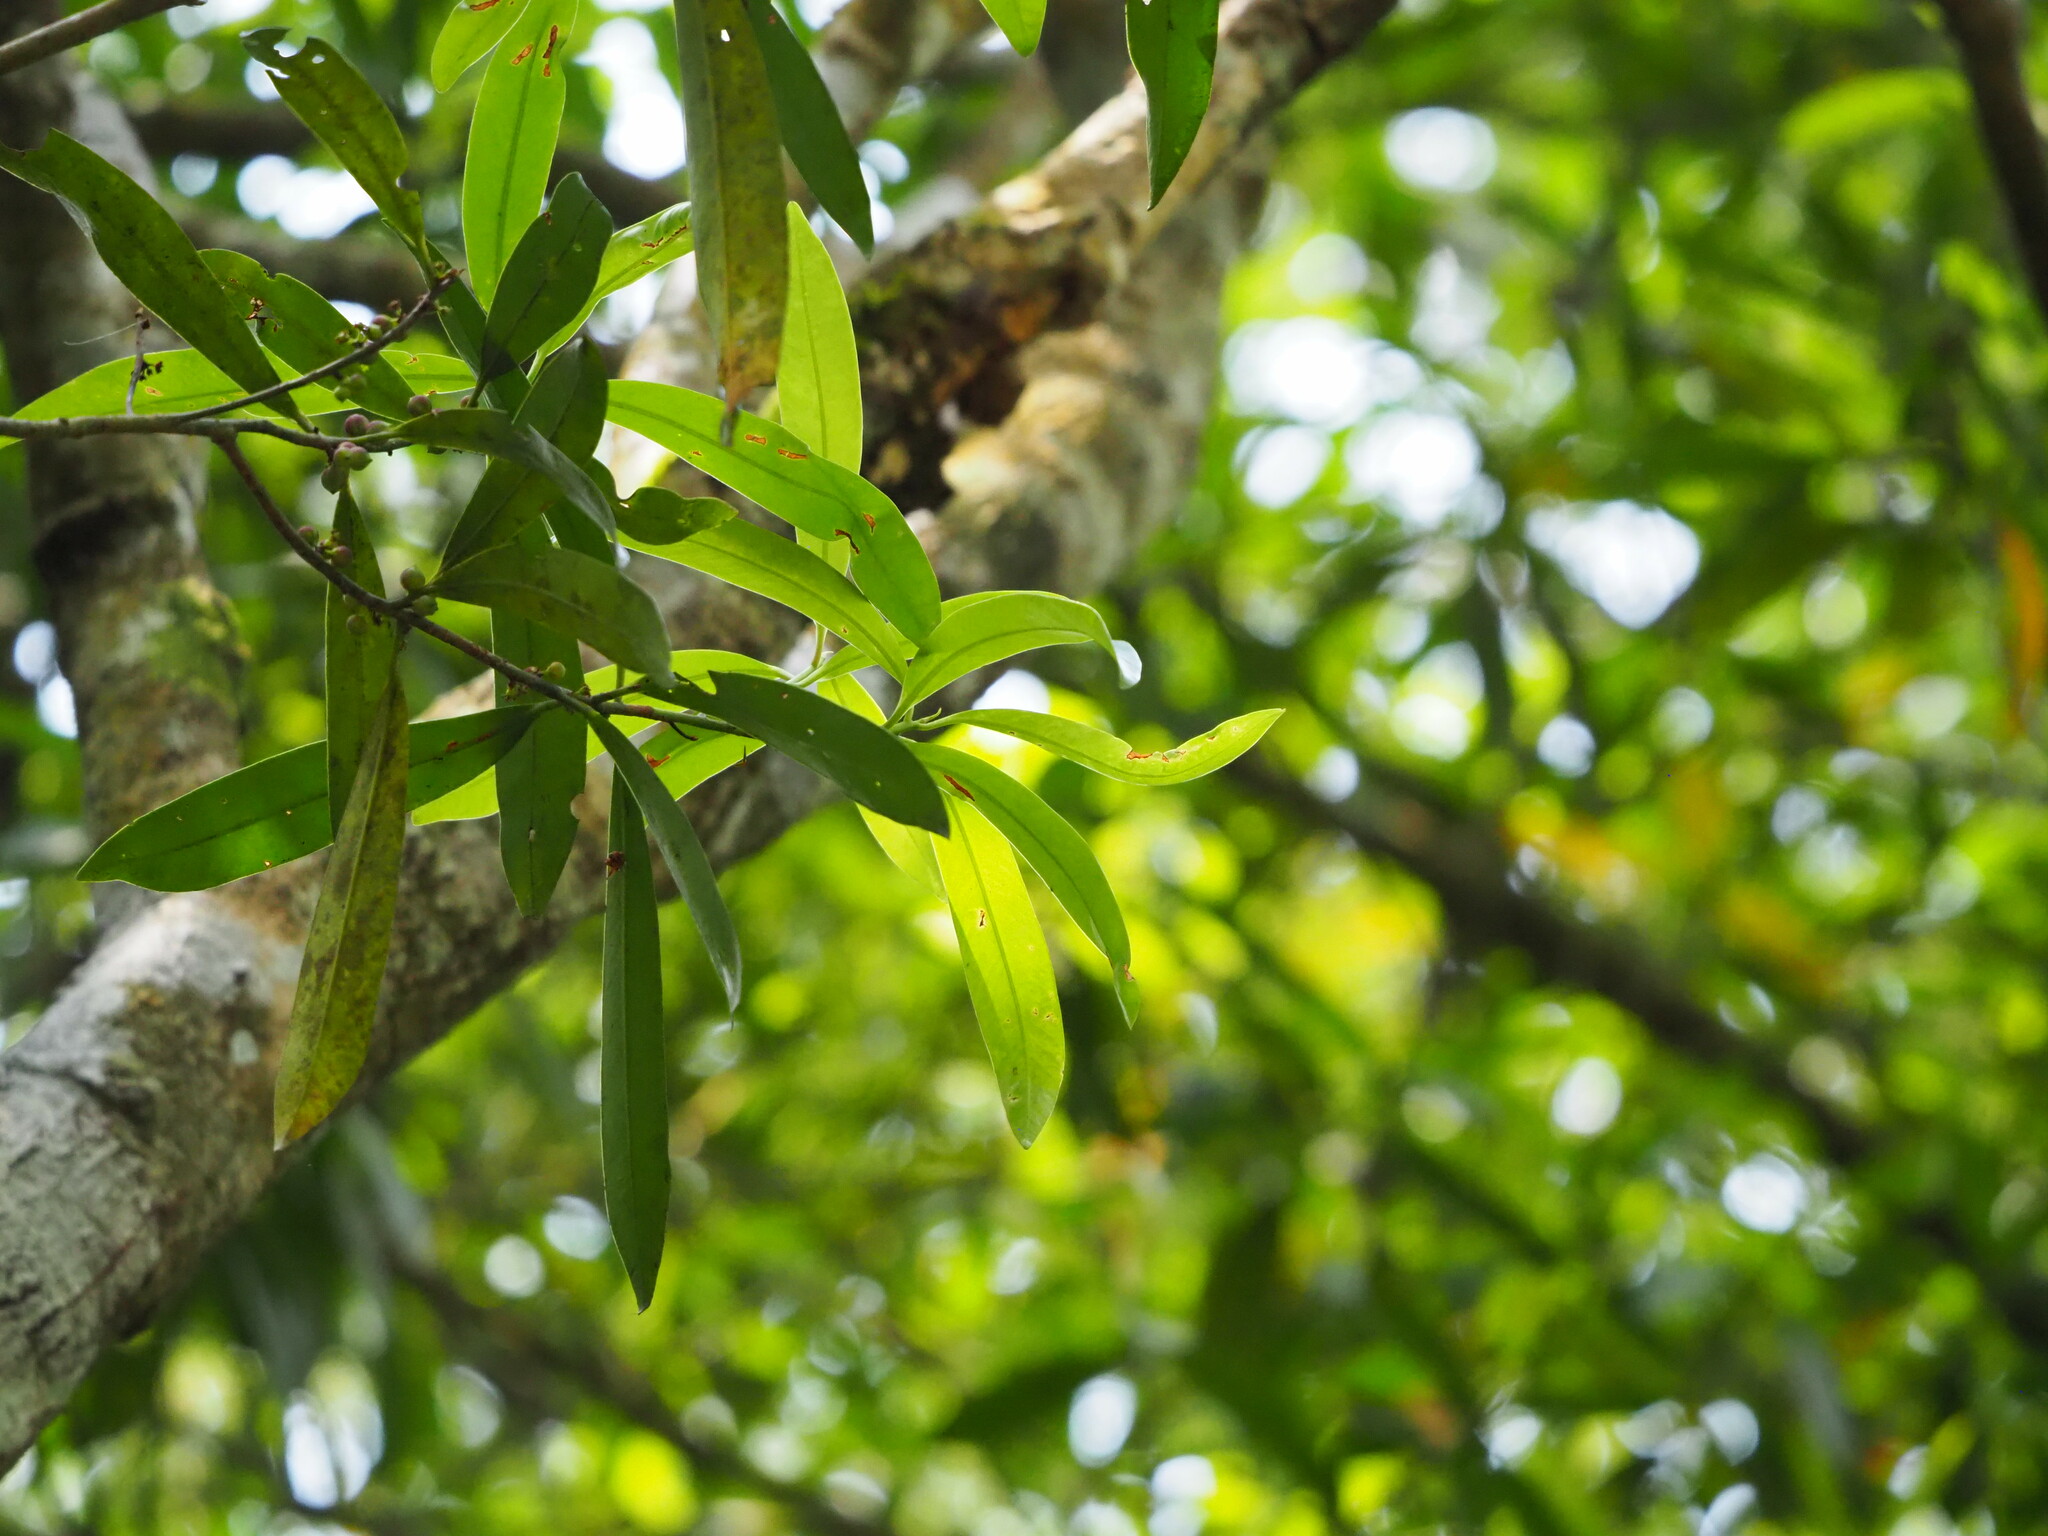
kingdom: Plantae
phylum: Tracheophyta
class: Magnoliopsida
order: Ericales
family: Primulaceae
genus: Myrsine
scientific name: Myrsine seguinii
